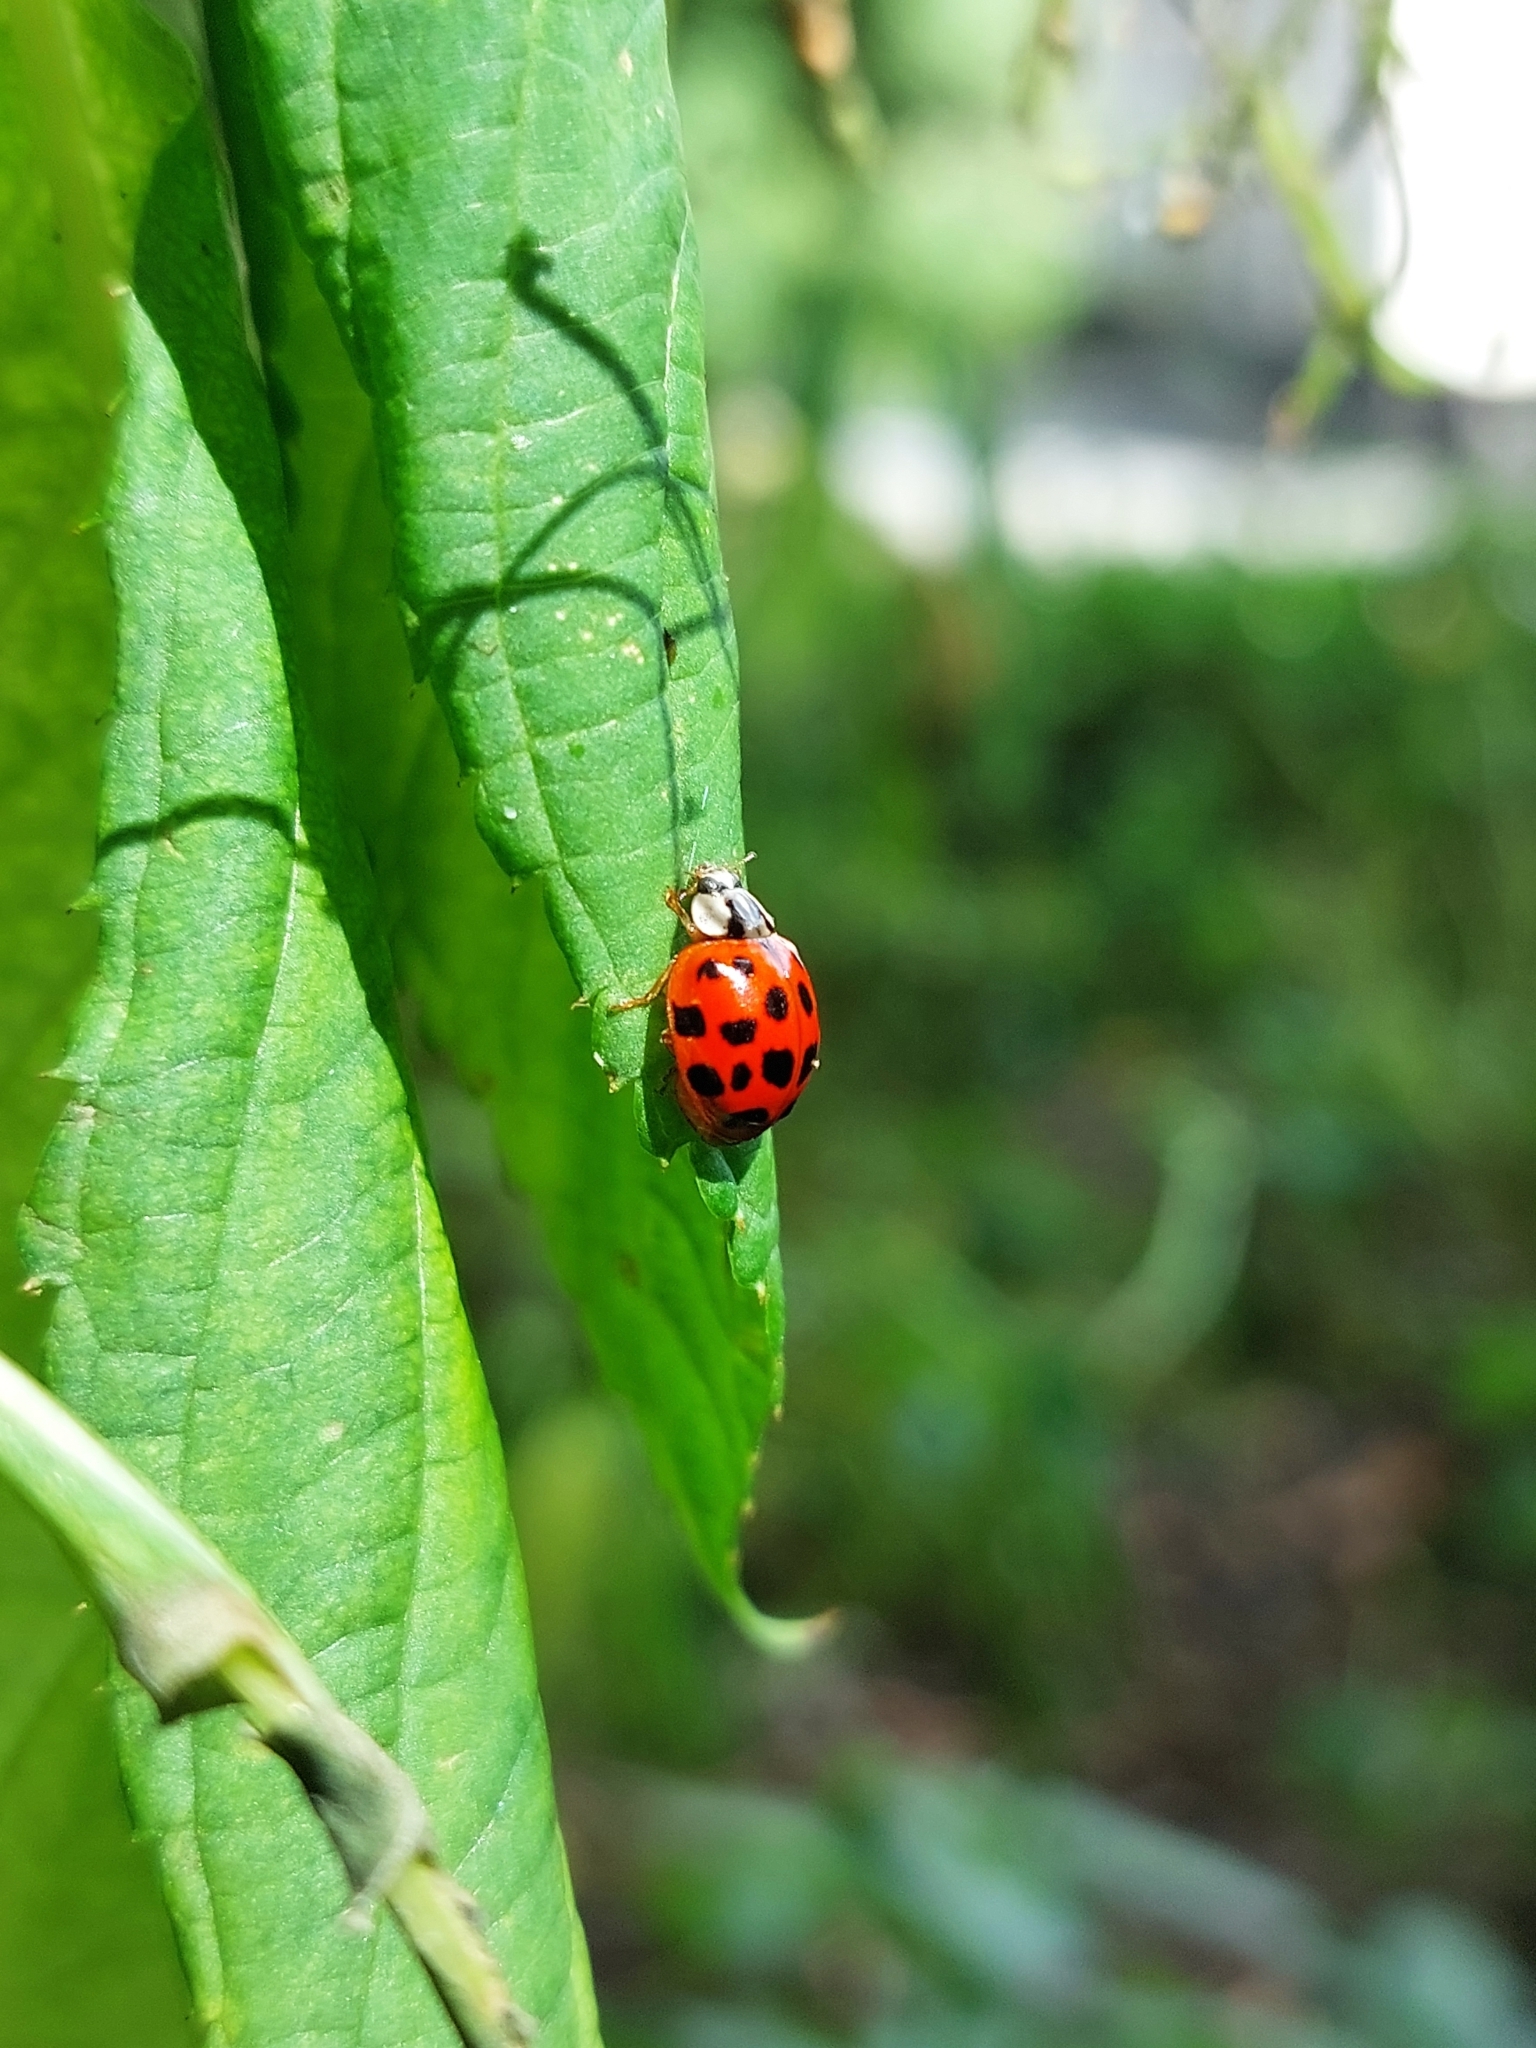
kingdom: Animalia
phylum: Arthropoda
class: Insecta
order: Coleoptera
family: Coccinellidae
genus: Harmonia
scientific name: Harmonia axyridis
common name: Harlequin ladybird
